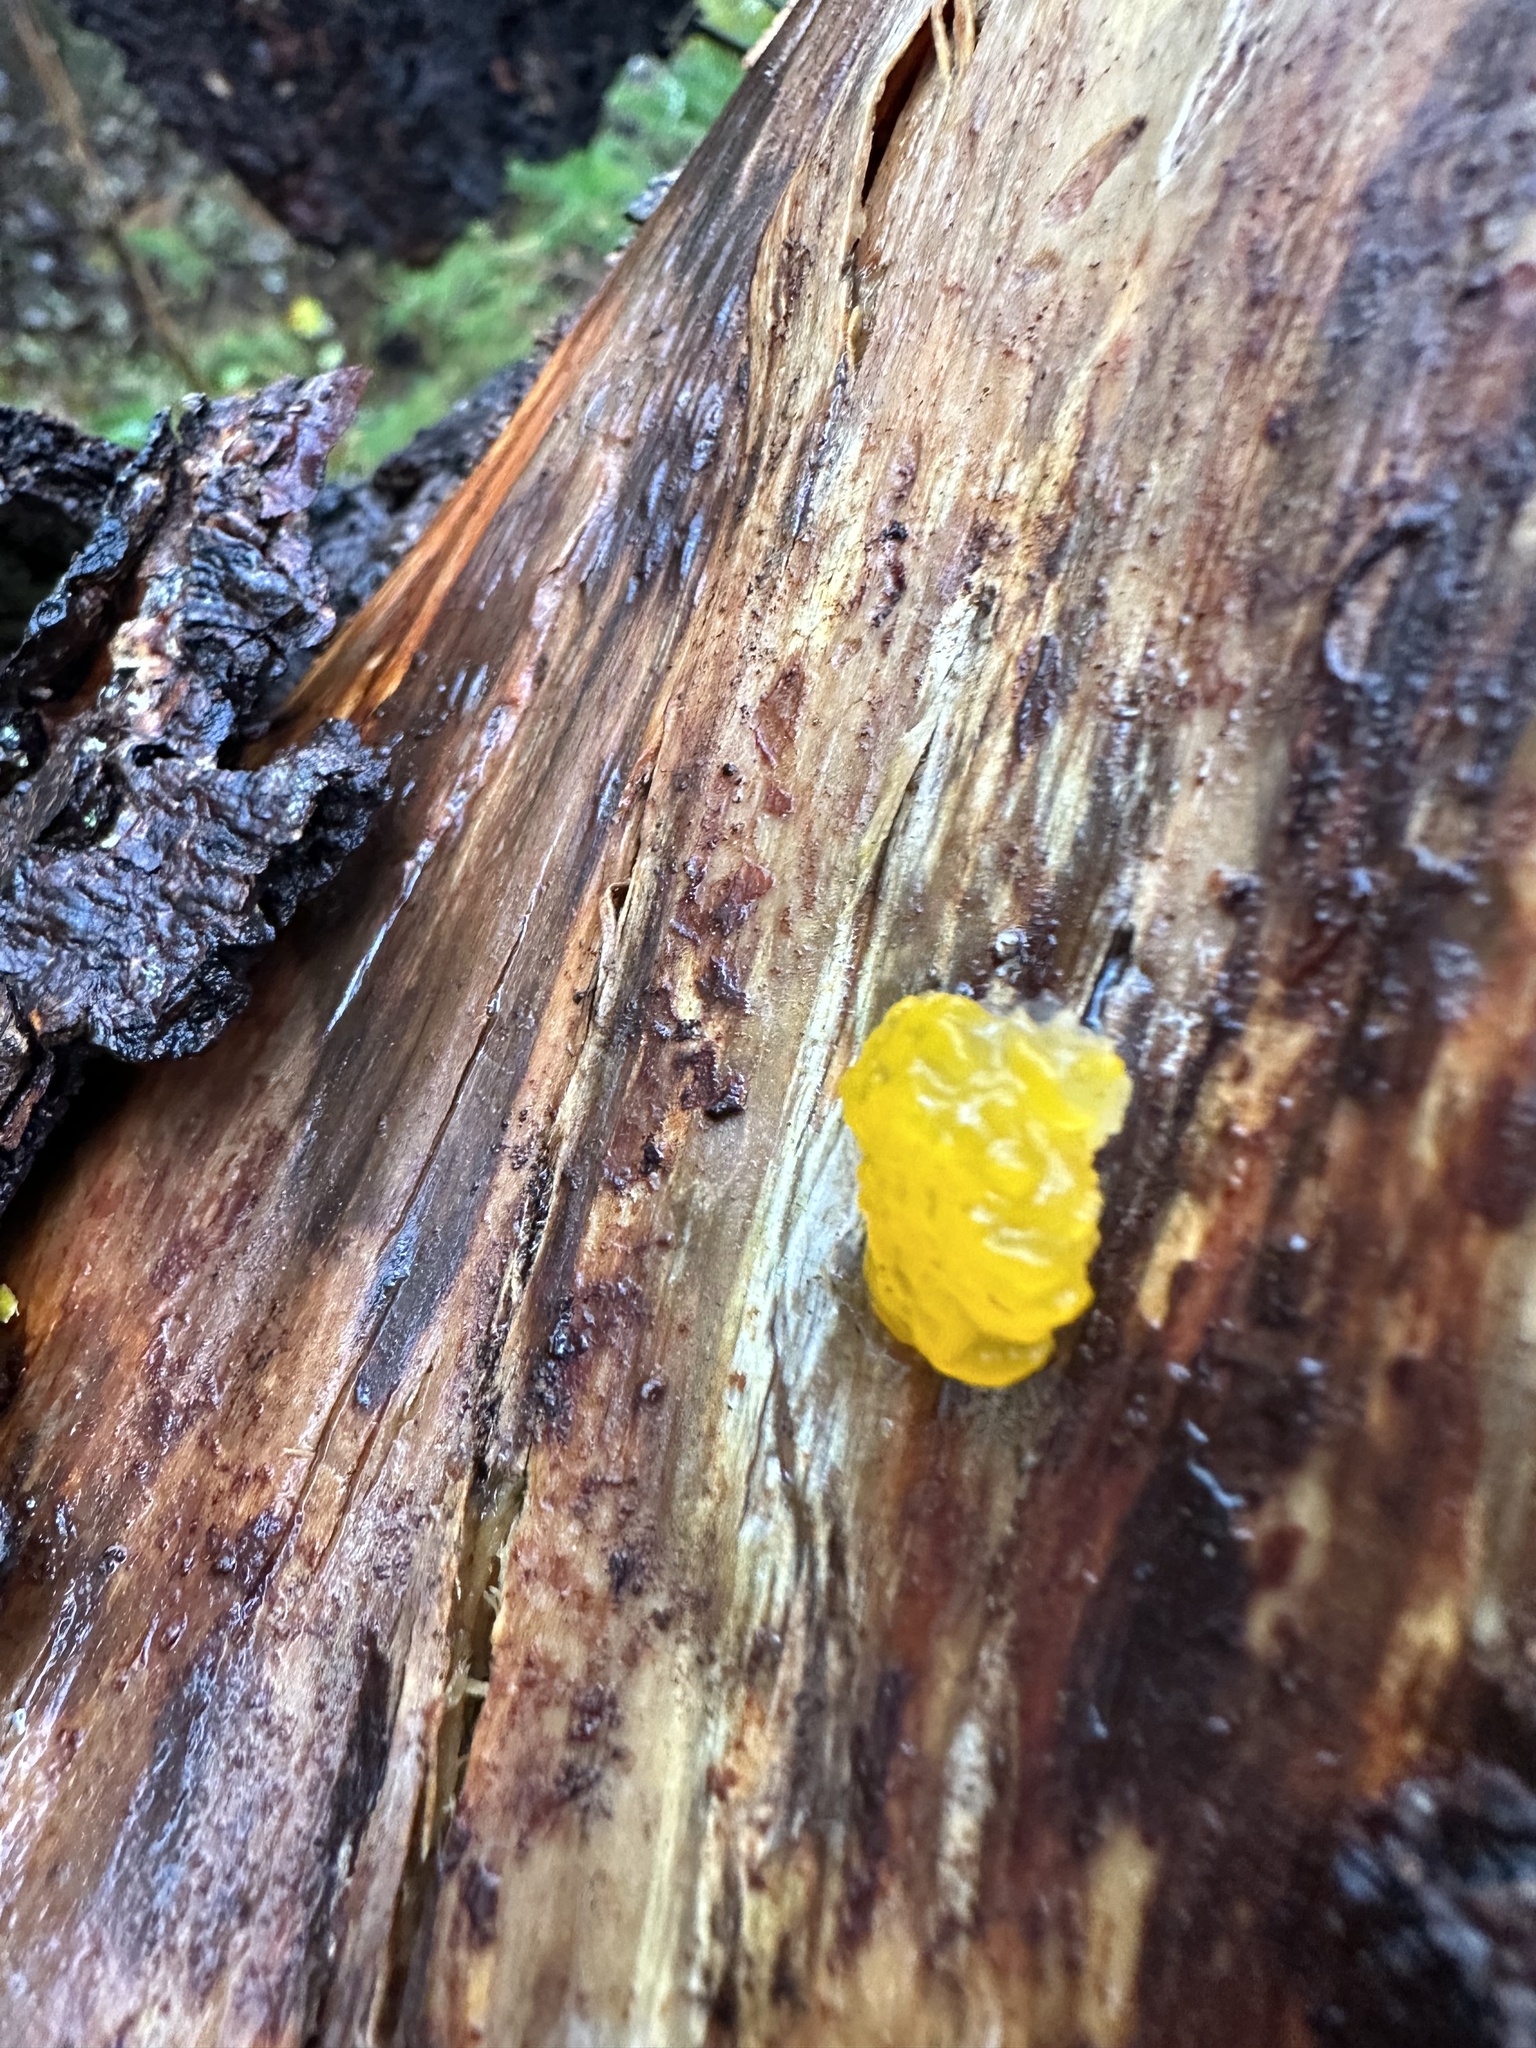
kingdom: Fungi
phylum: Basidiomycota
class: Dacrymycetes
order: Dacrymycetales
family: Dacrymycetaceae
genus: Dacrymyces
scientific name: Dacrymyces chrysospermus
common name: Orange jelly spot
